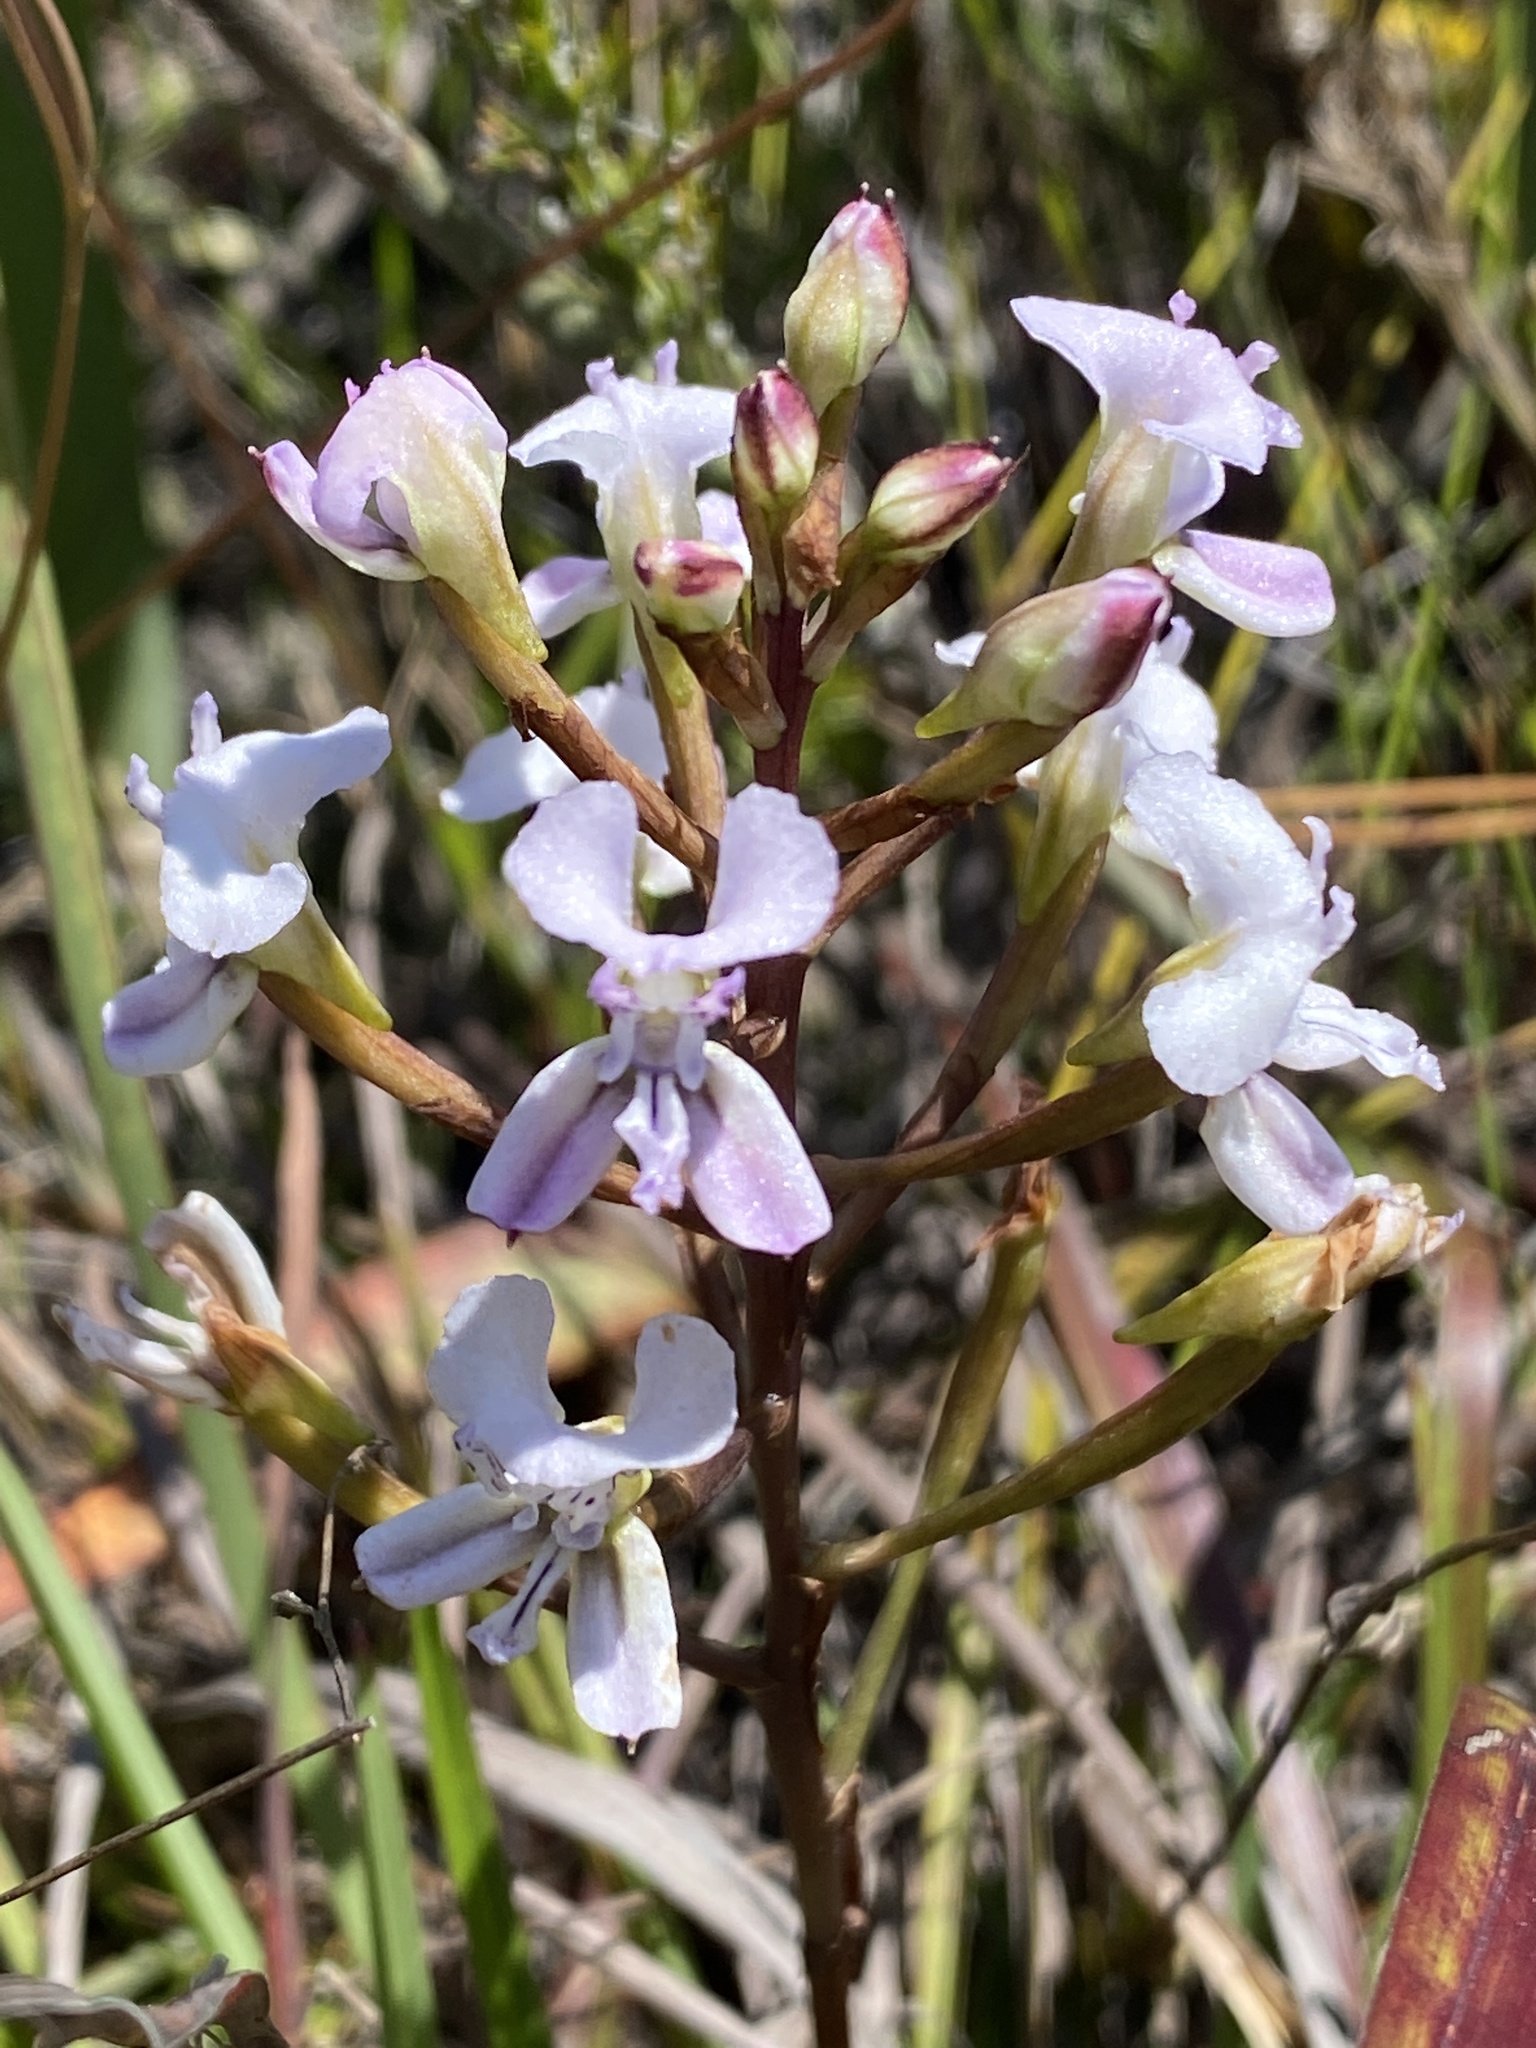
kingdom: Plantae
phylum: Tracheophyta
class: Liliopsida
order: Asparagales
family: Orchidaceae
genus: Disa
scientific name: Disa sagittalis
